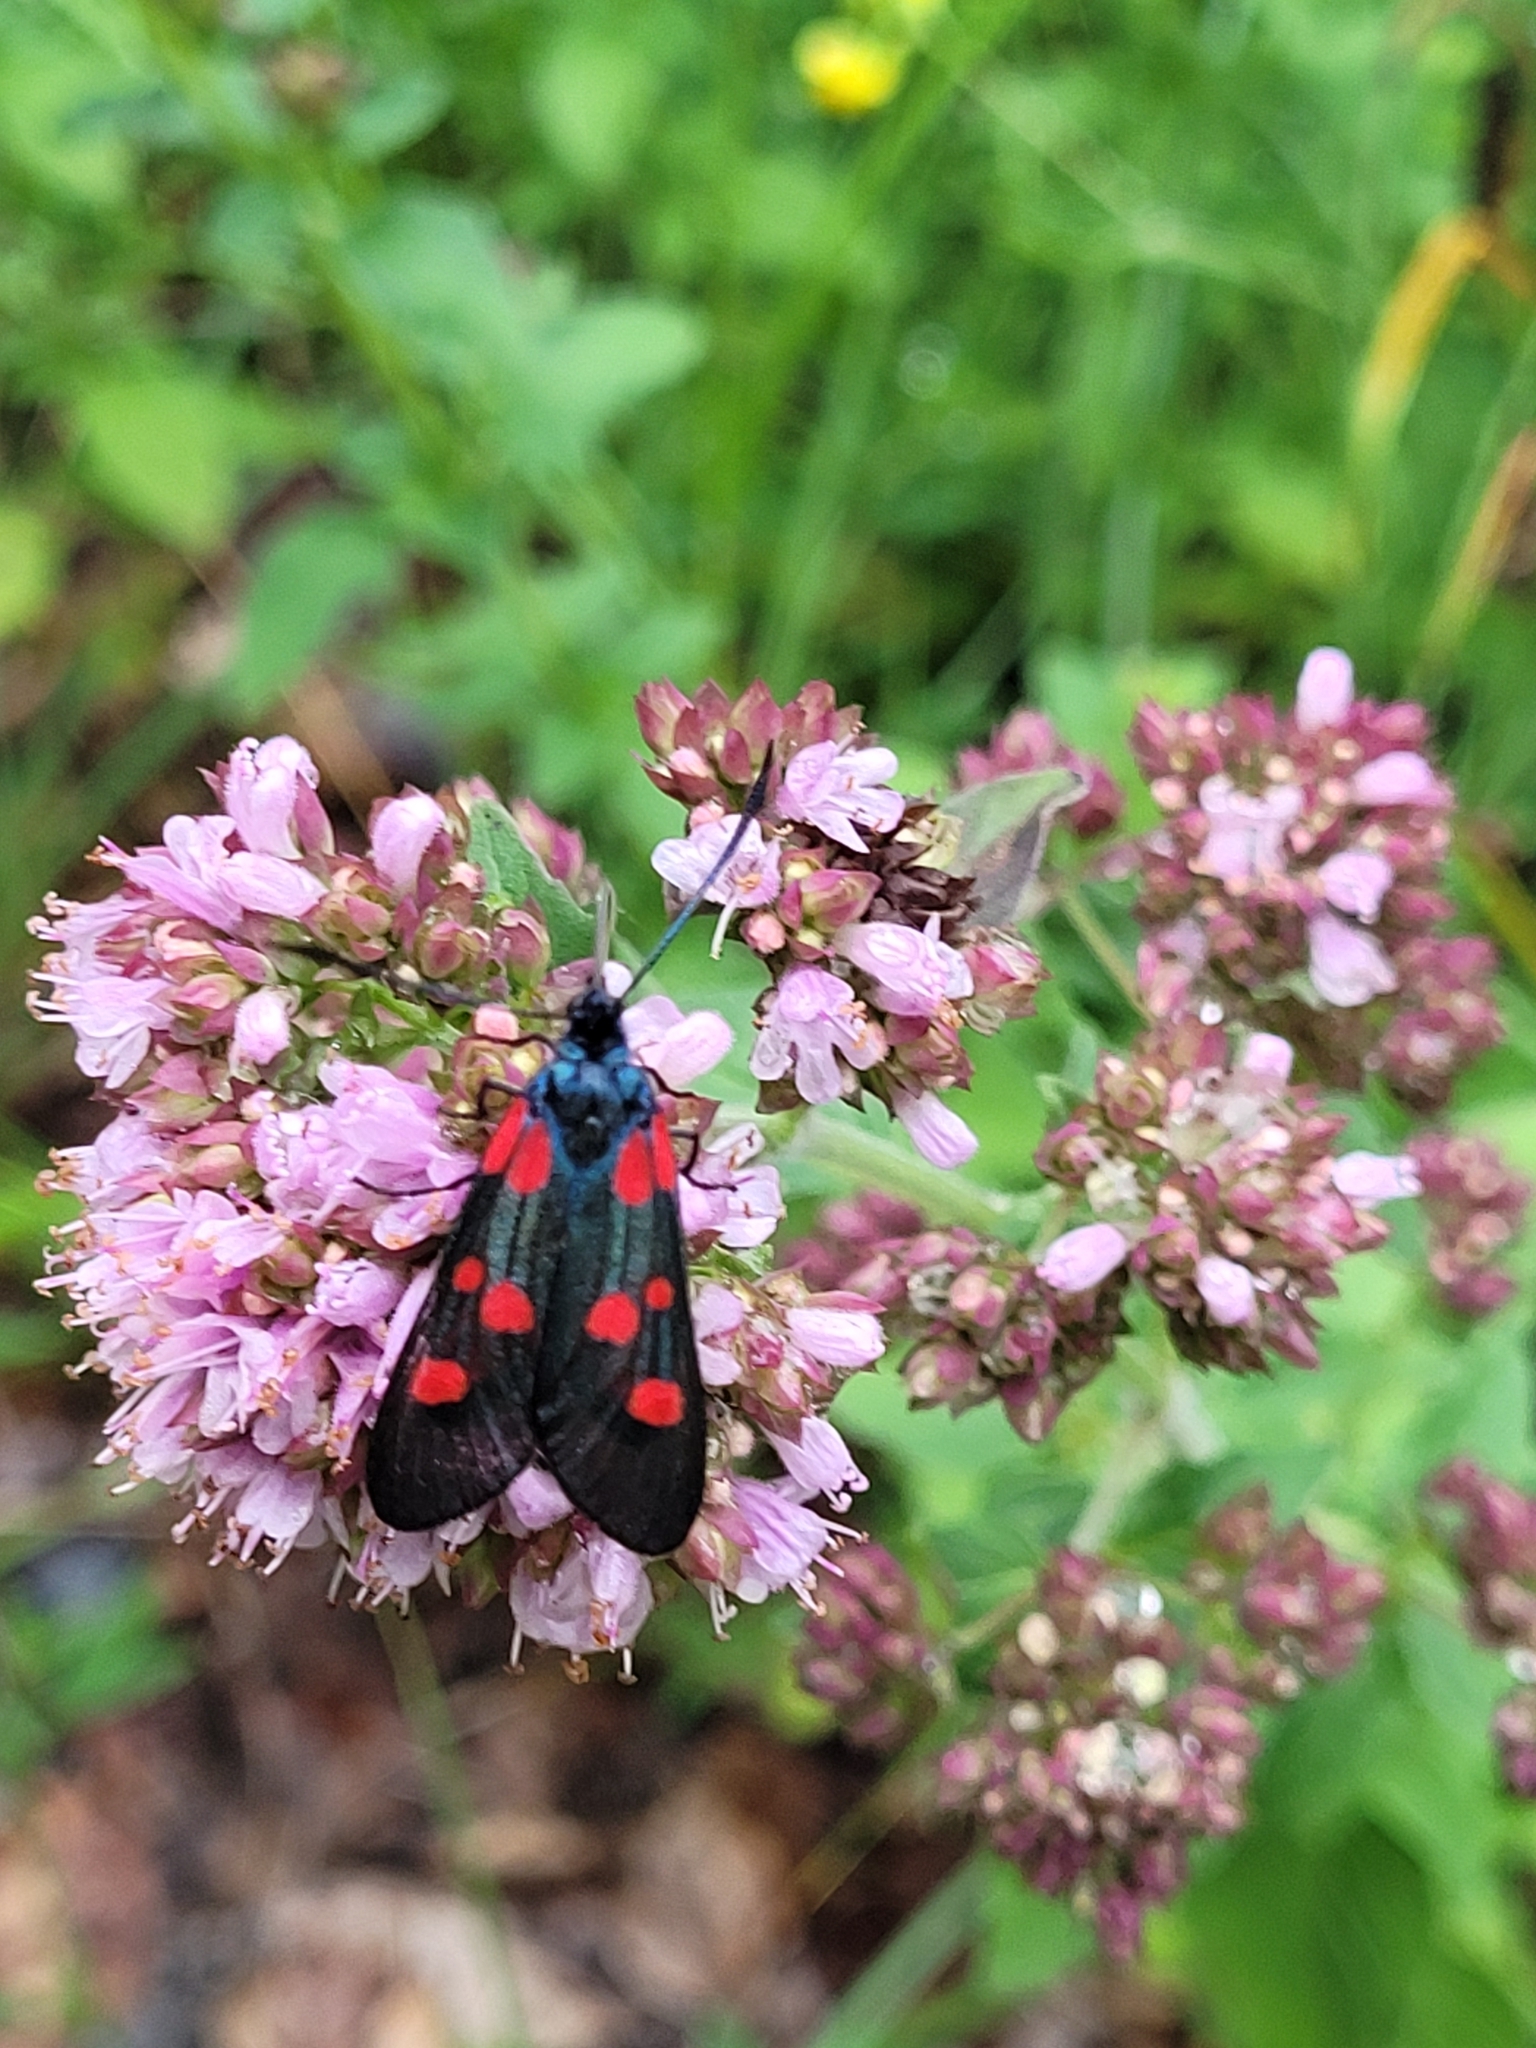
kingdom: Animalia
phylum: Arthropoda
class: Insecta
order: Lepidoptera
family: Zygaenidae
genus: Zygaena
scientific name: Zygaena lonicerae
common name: Narrow-bordered five-spot burnet
